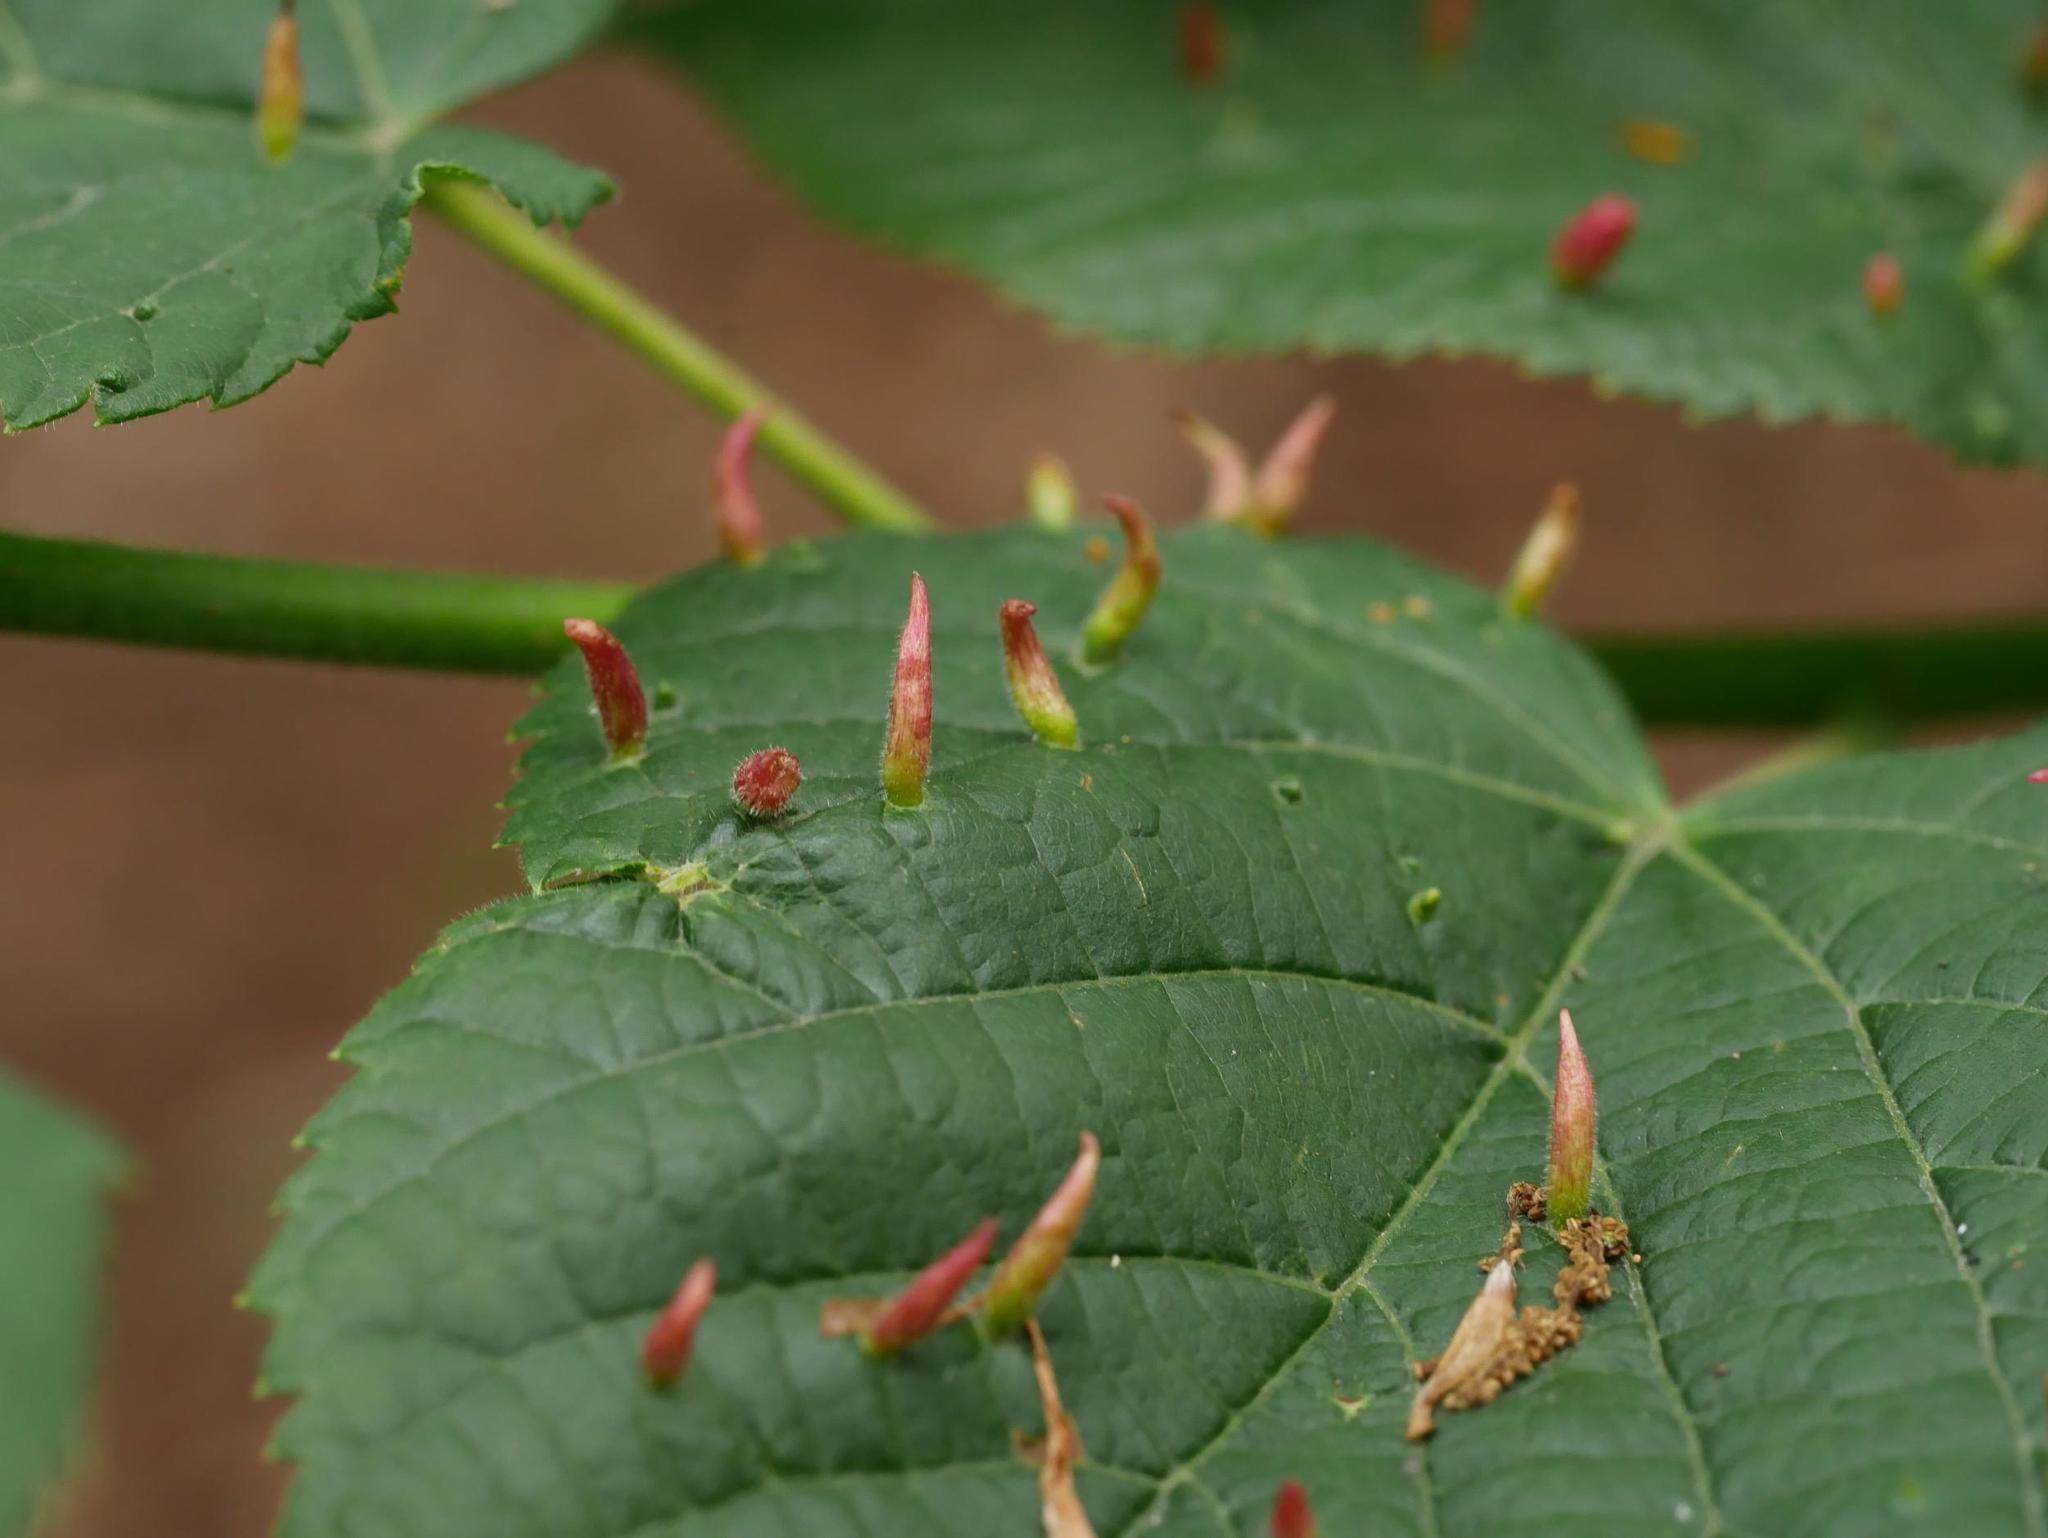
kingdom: Animalia
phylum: Arthropoda
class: Arachnida
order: Trombidiformes
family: Eriophyidae
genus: Eriophyes
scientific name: Eriophyes tiliae
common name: Red nail gall mite
